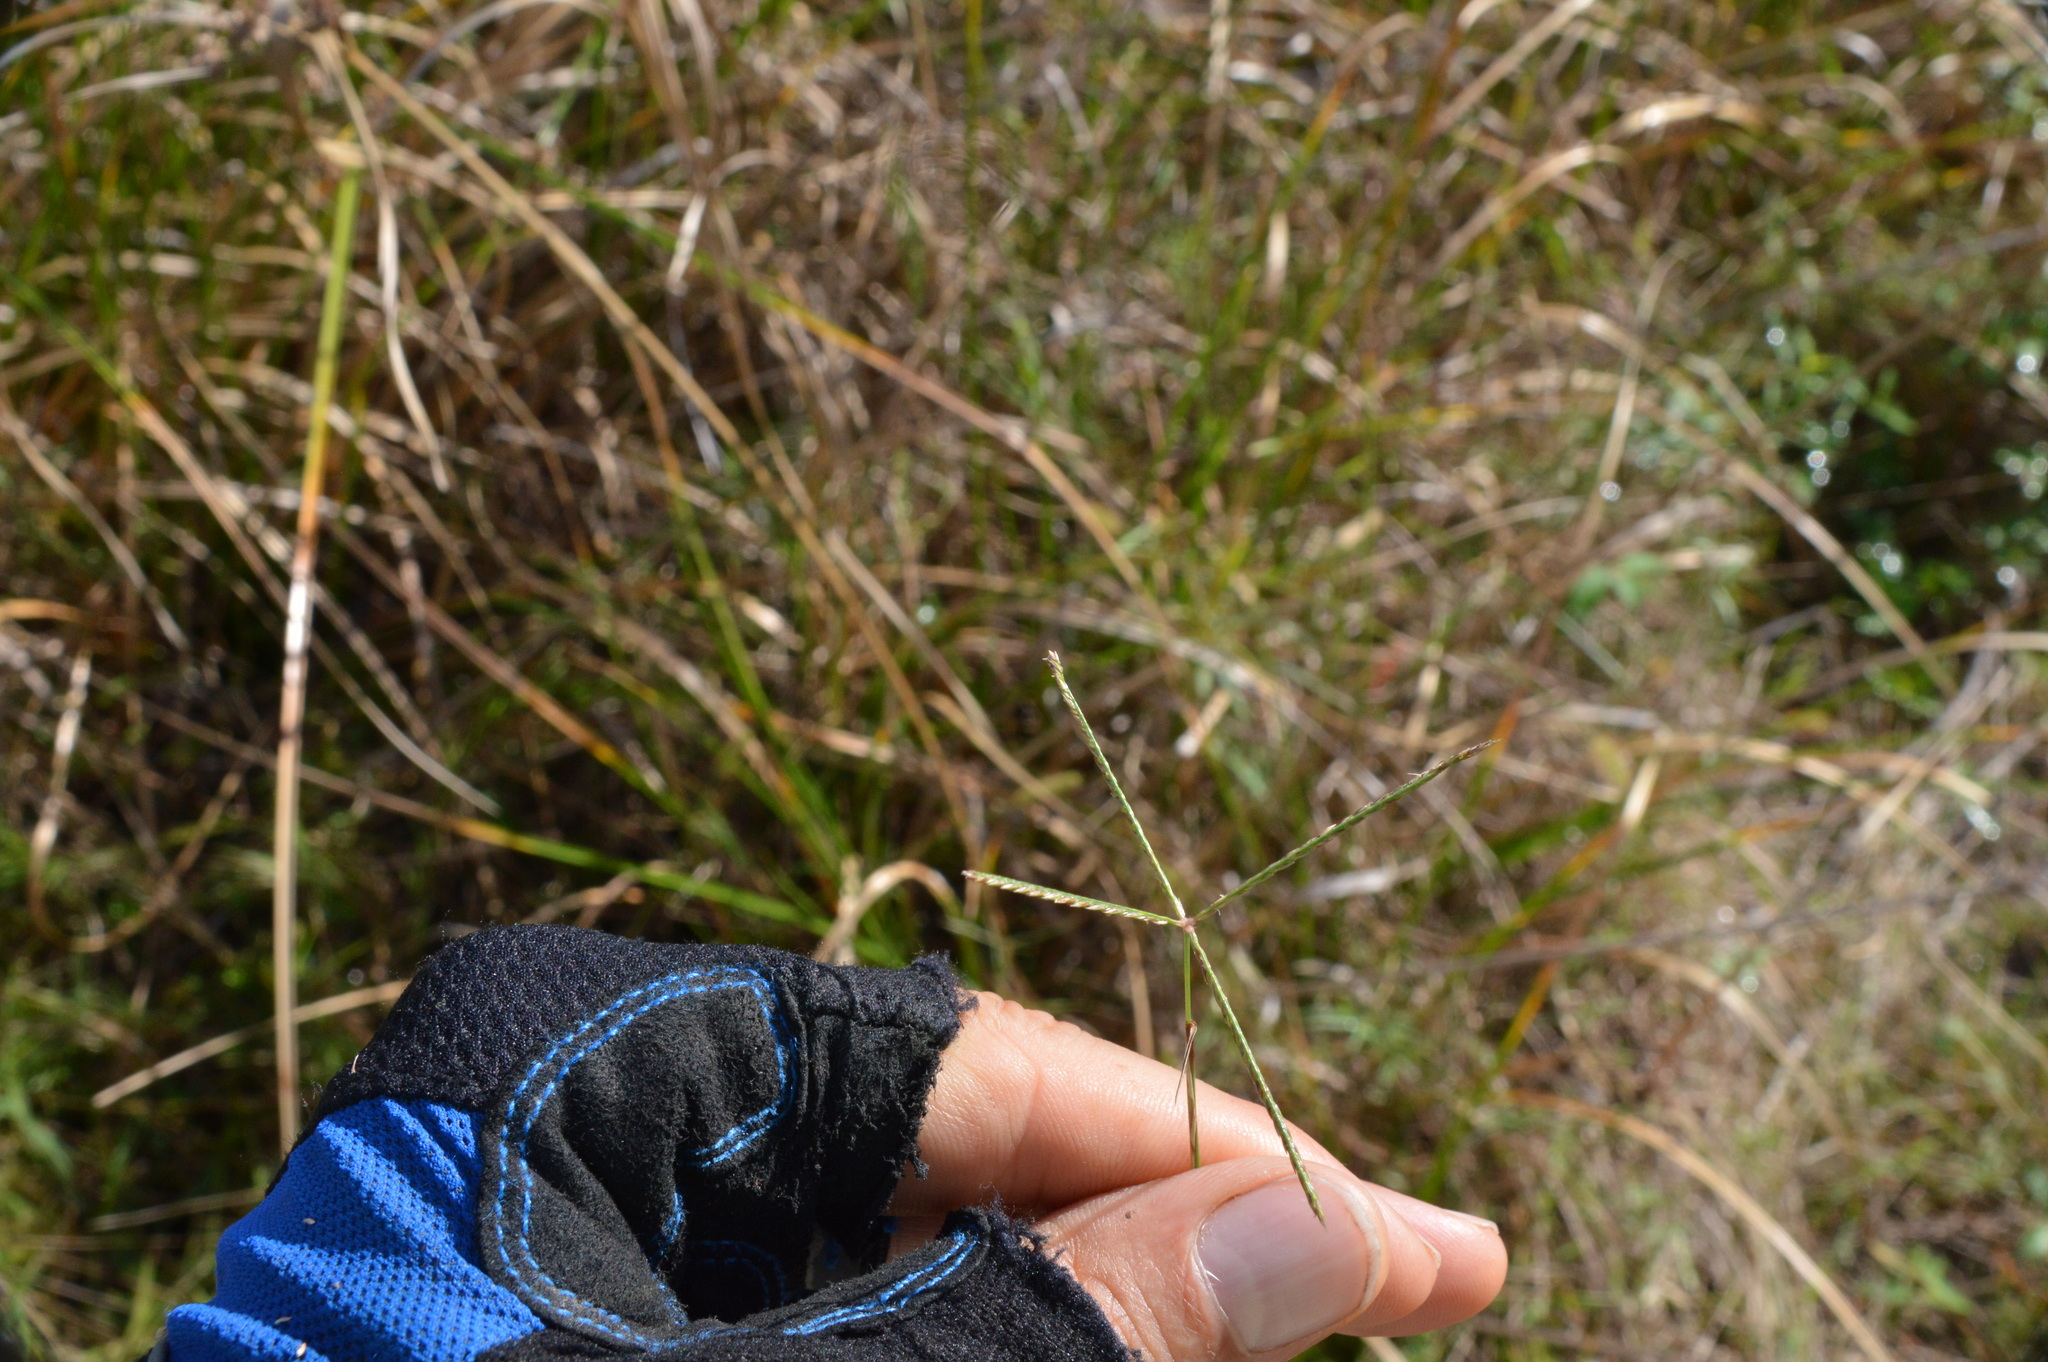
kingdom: Plantae
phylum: Tracheophyta
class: Liliopsida
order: Poales
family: Poaceae
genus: Cynodon
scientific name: Cynodon dactylon
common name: Bermuda grass
